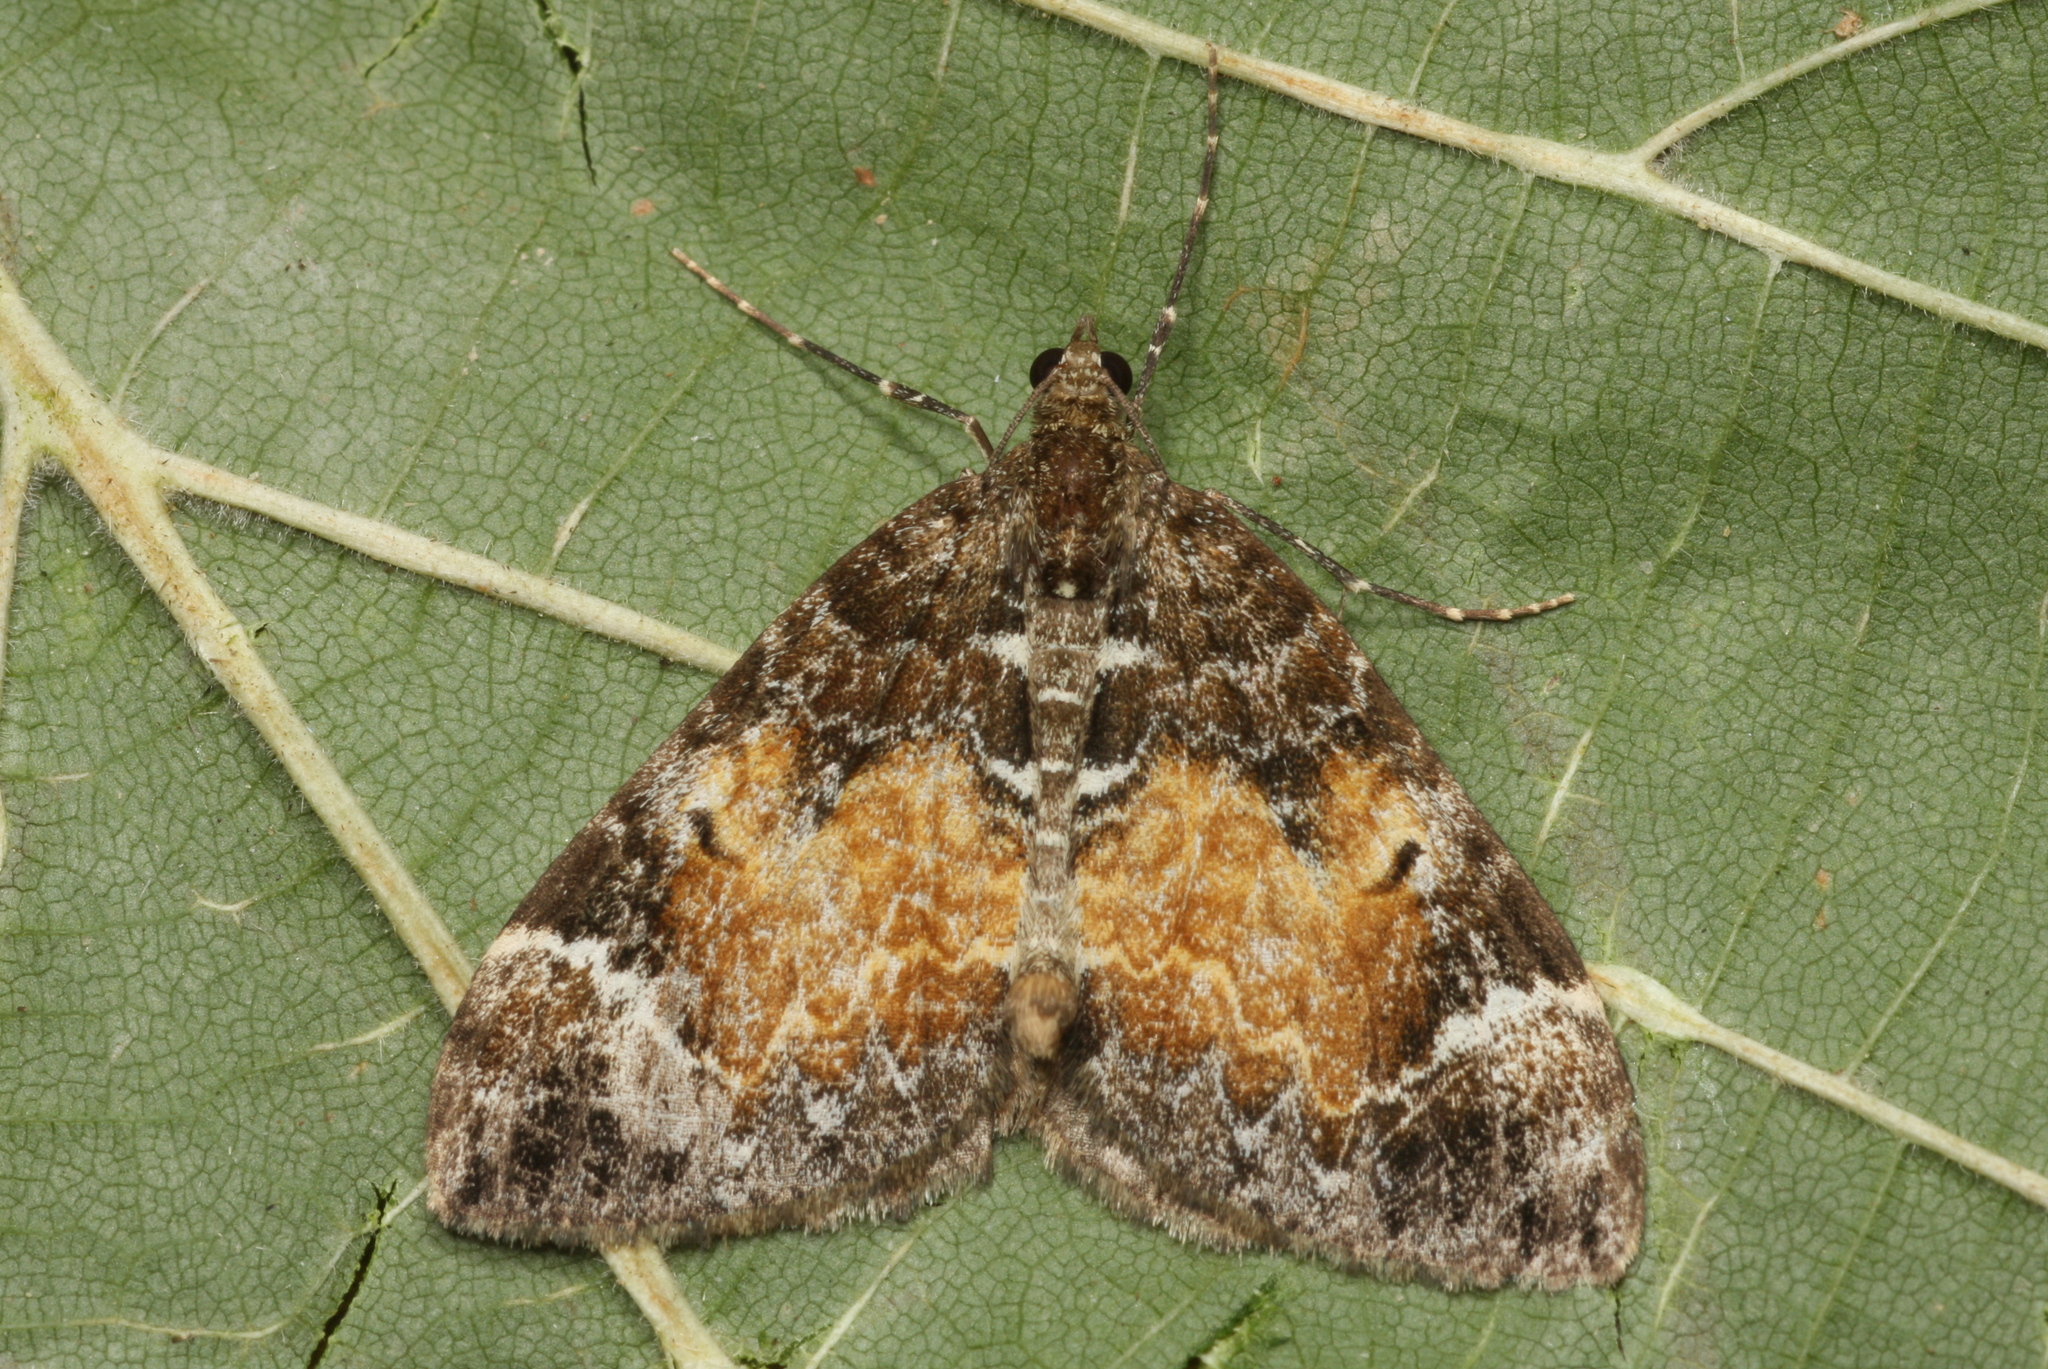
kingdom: Animalia
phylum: Arthropoda
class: Insecta
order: Lepidoptera
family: Geometridae
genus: Dysstroma
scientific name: Dysstroma truncata
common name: Common marbled carpet
